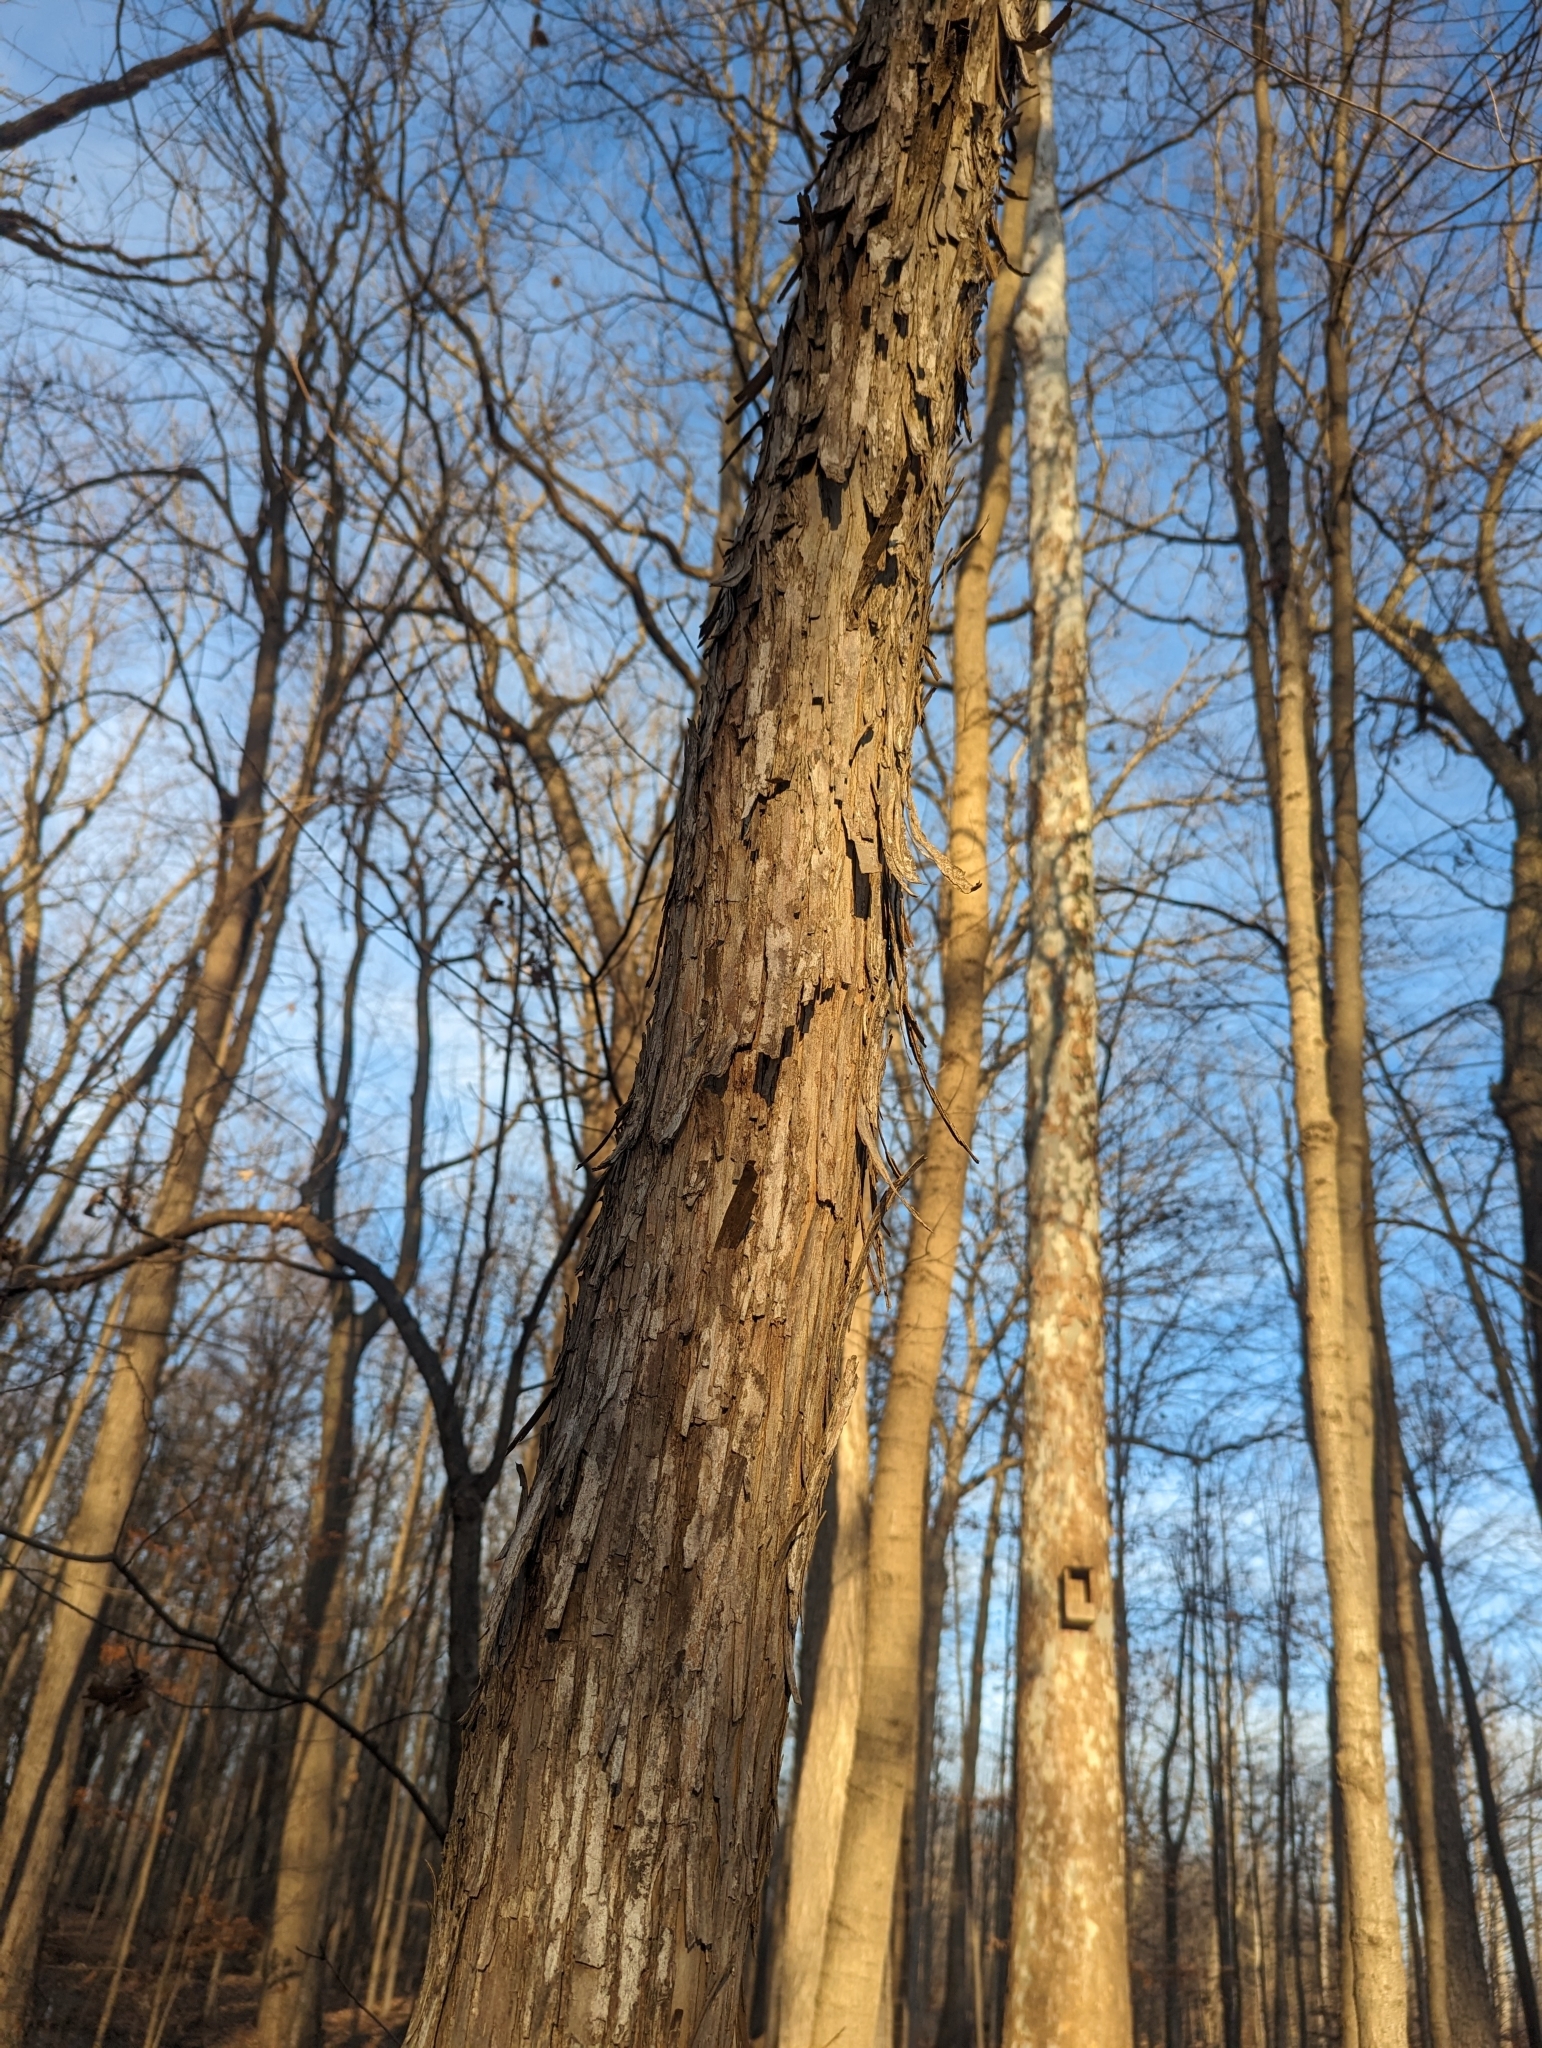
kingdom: Plantae
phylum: Tracheophyta
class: Magnoliopsida
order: Fagales
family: Juglandaceae
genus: Carya
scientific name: Carya ovata
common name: Shagbark hickory
